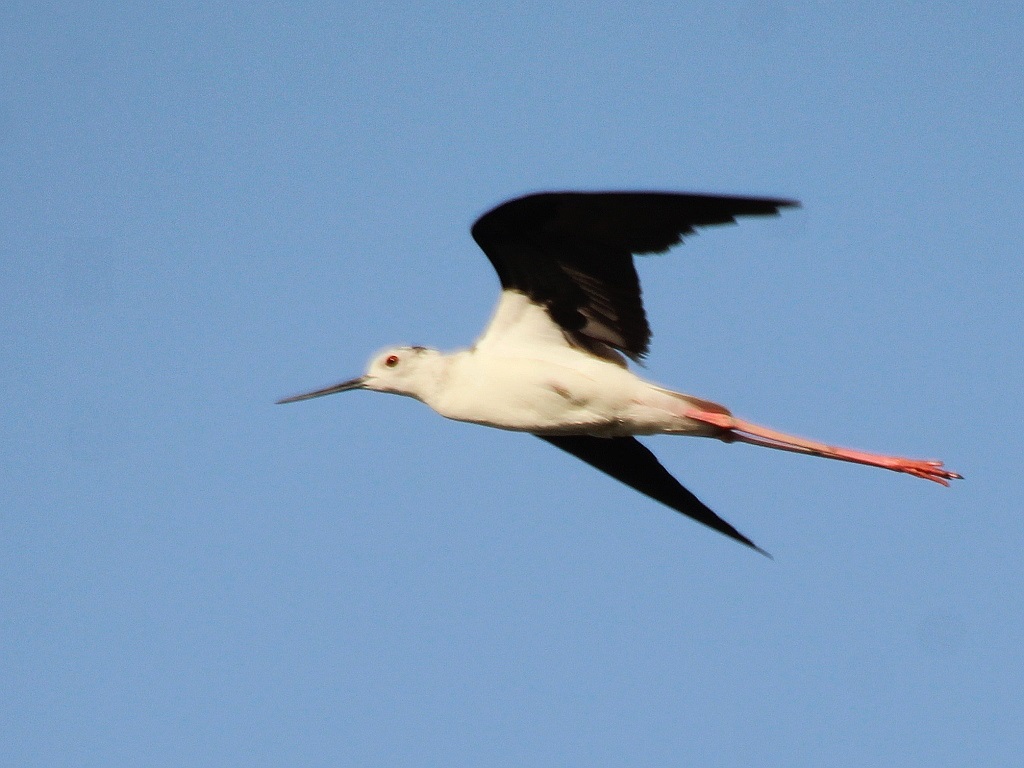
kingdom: Animalia
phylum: Chordata
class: Aves
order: Charadriiformes
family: Recurvirostridae
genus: Himantopus
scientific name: Himantopus himantopus
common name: Black-winged stilt
